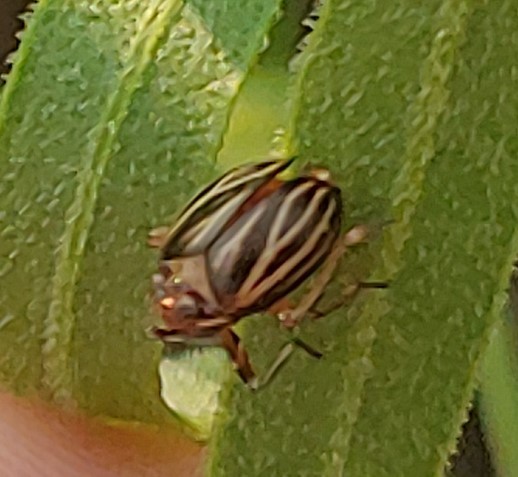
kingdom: Animalia
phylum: Arthropoda
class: Insecta
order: Hemiptera
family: Achilidae
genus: Isodaemon
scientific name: Isodaemon orontes
